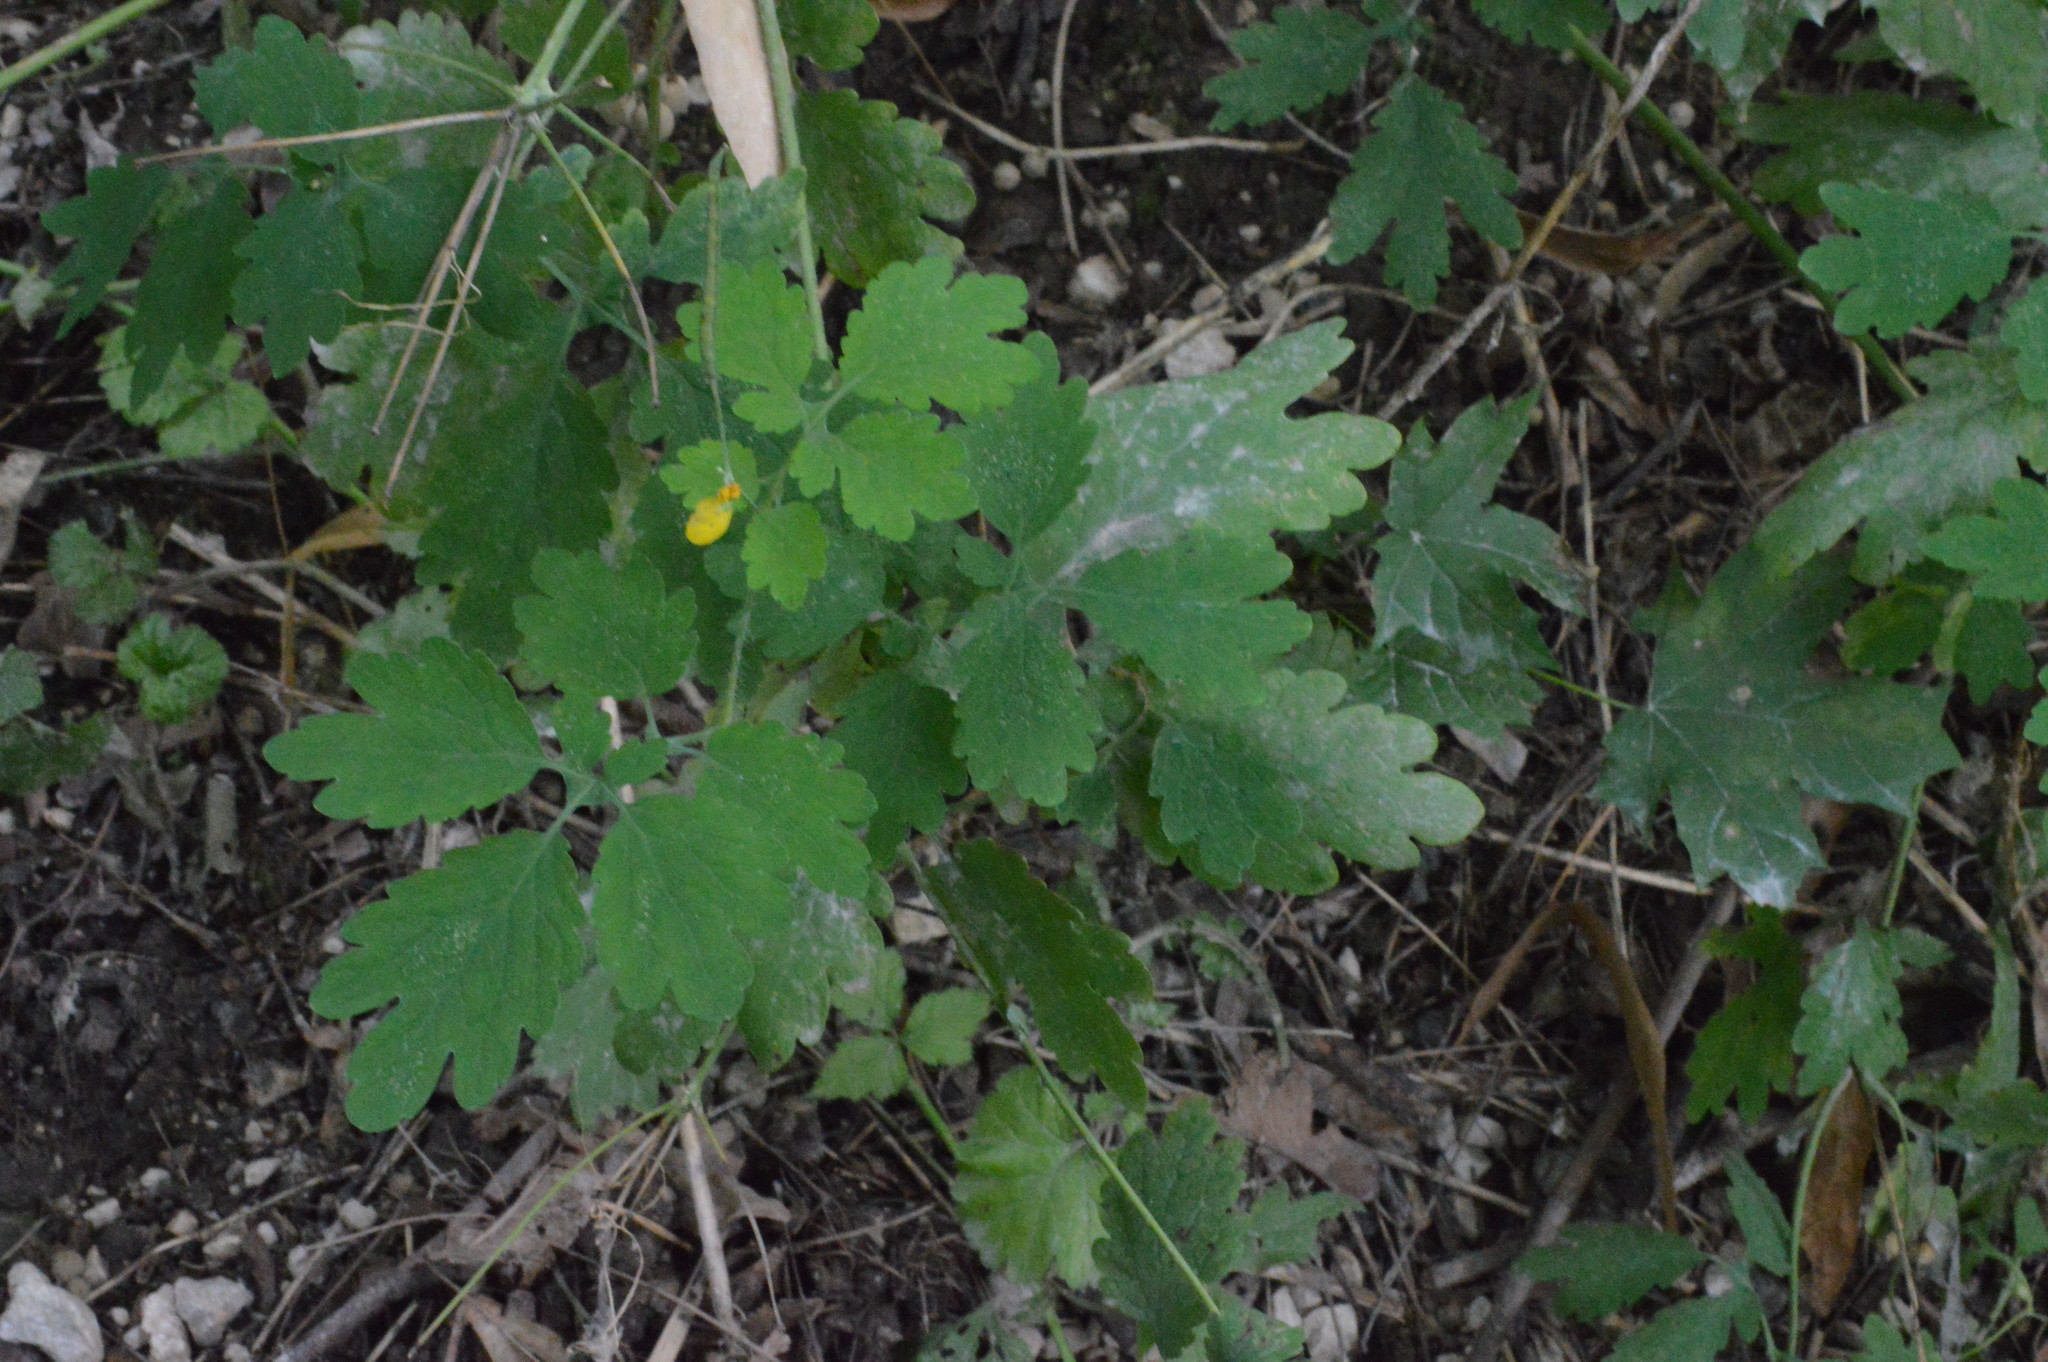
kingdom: Plantae
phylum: Tracheophyta
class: Magnoliopsida
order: Ranunculales
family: Papaveraceae
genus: Chelidonium
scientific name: Chelidonium majus
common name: Greater celandine
